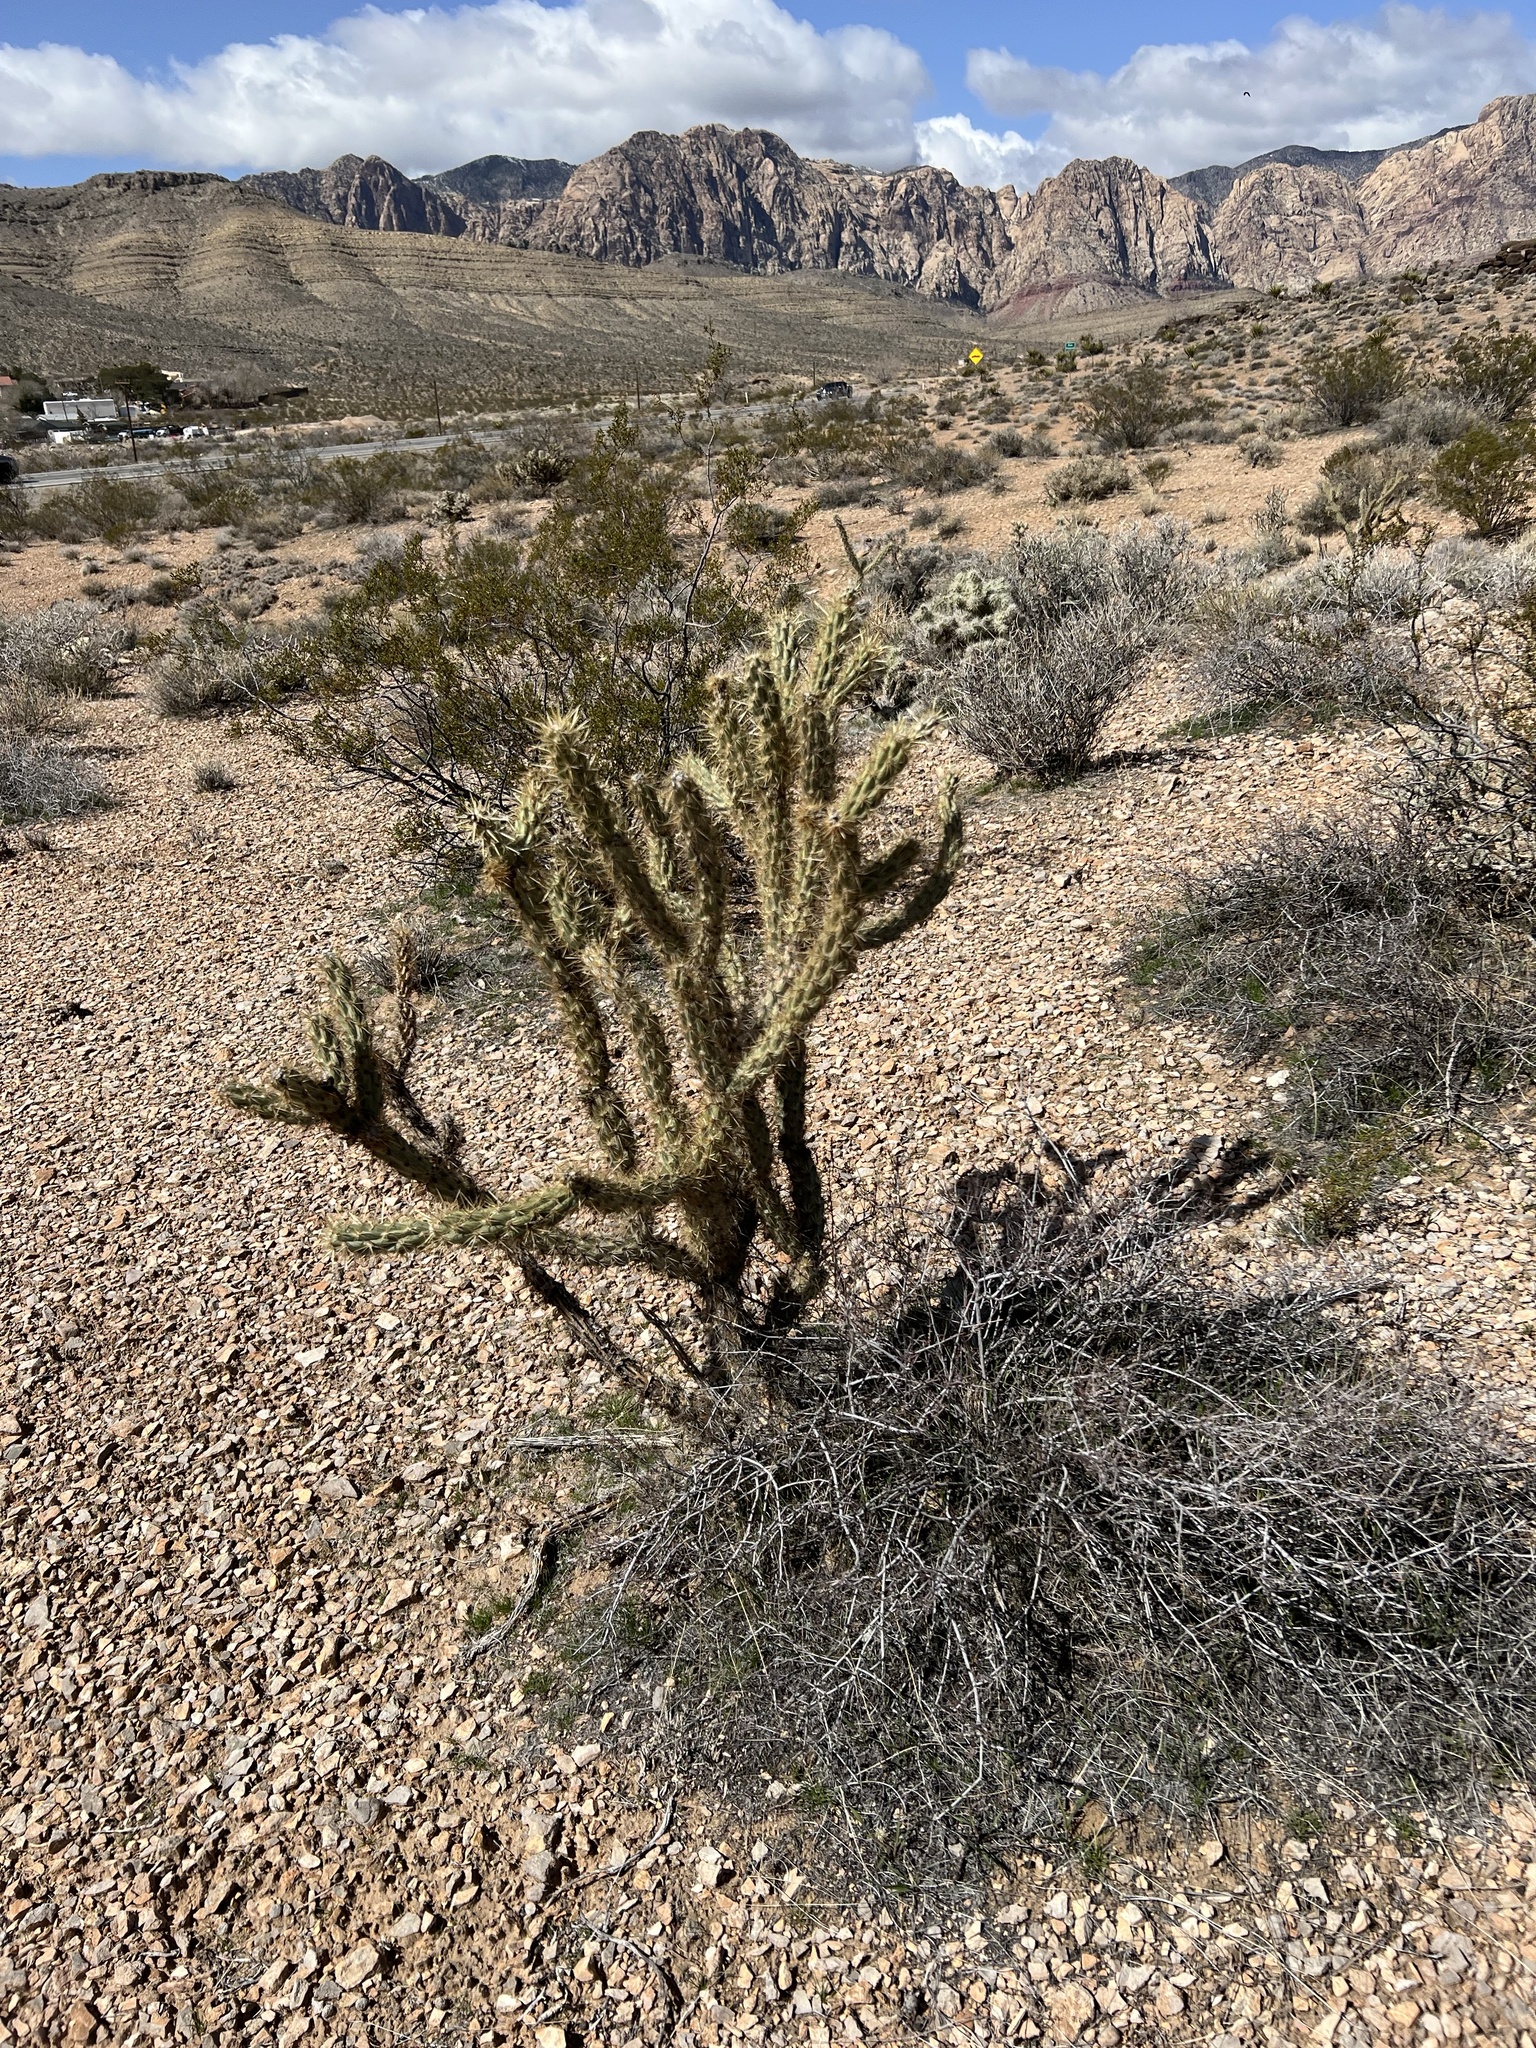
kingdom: Plantae
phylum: Tracheophyta
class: Magnoliopsida
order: Caryophyllales
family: Cactaceae
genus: Cylindropuntia
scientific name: Cylindropuntia acanthocarpa
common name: Buckhorn cholla
